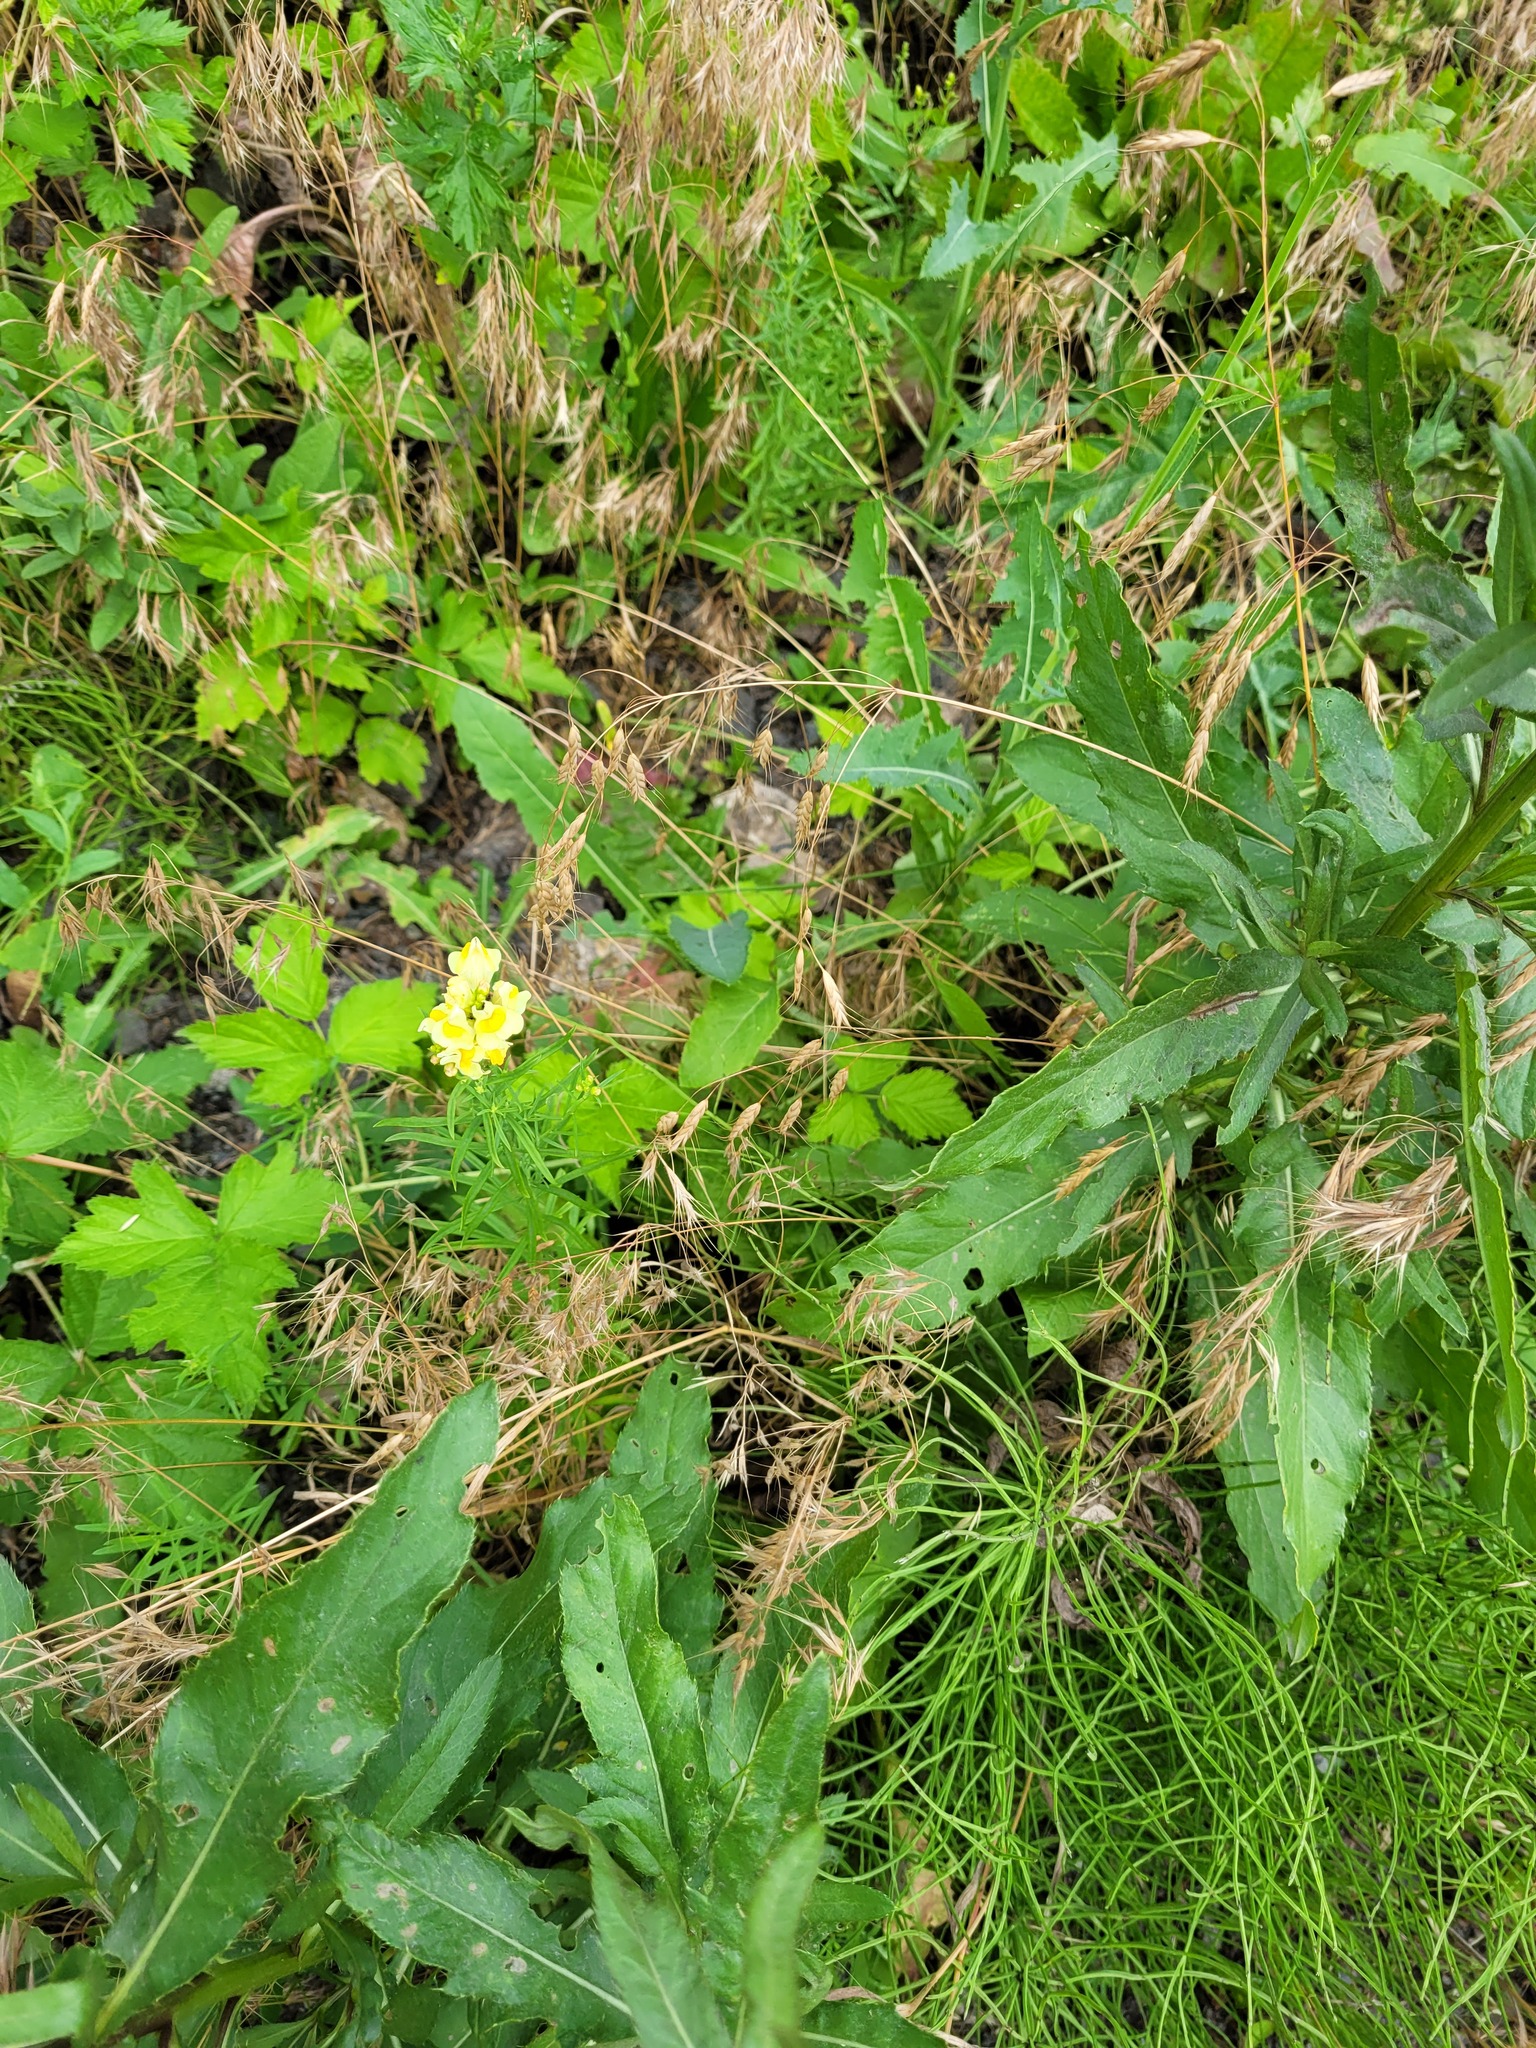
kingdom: Plantae
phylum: Tracheophyta
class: Magnoliopsida
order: Lamiales
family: Plantaginaceae
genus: Linaria
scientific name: Linaria vulgaris
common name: Butter and eggs
